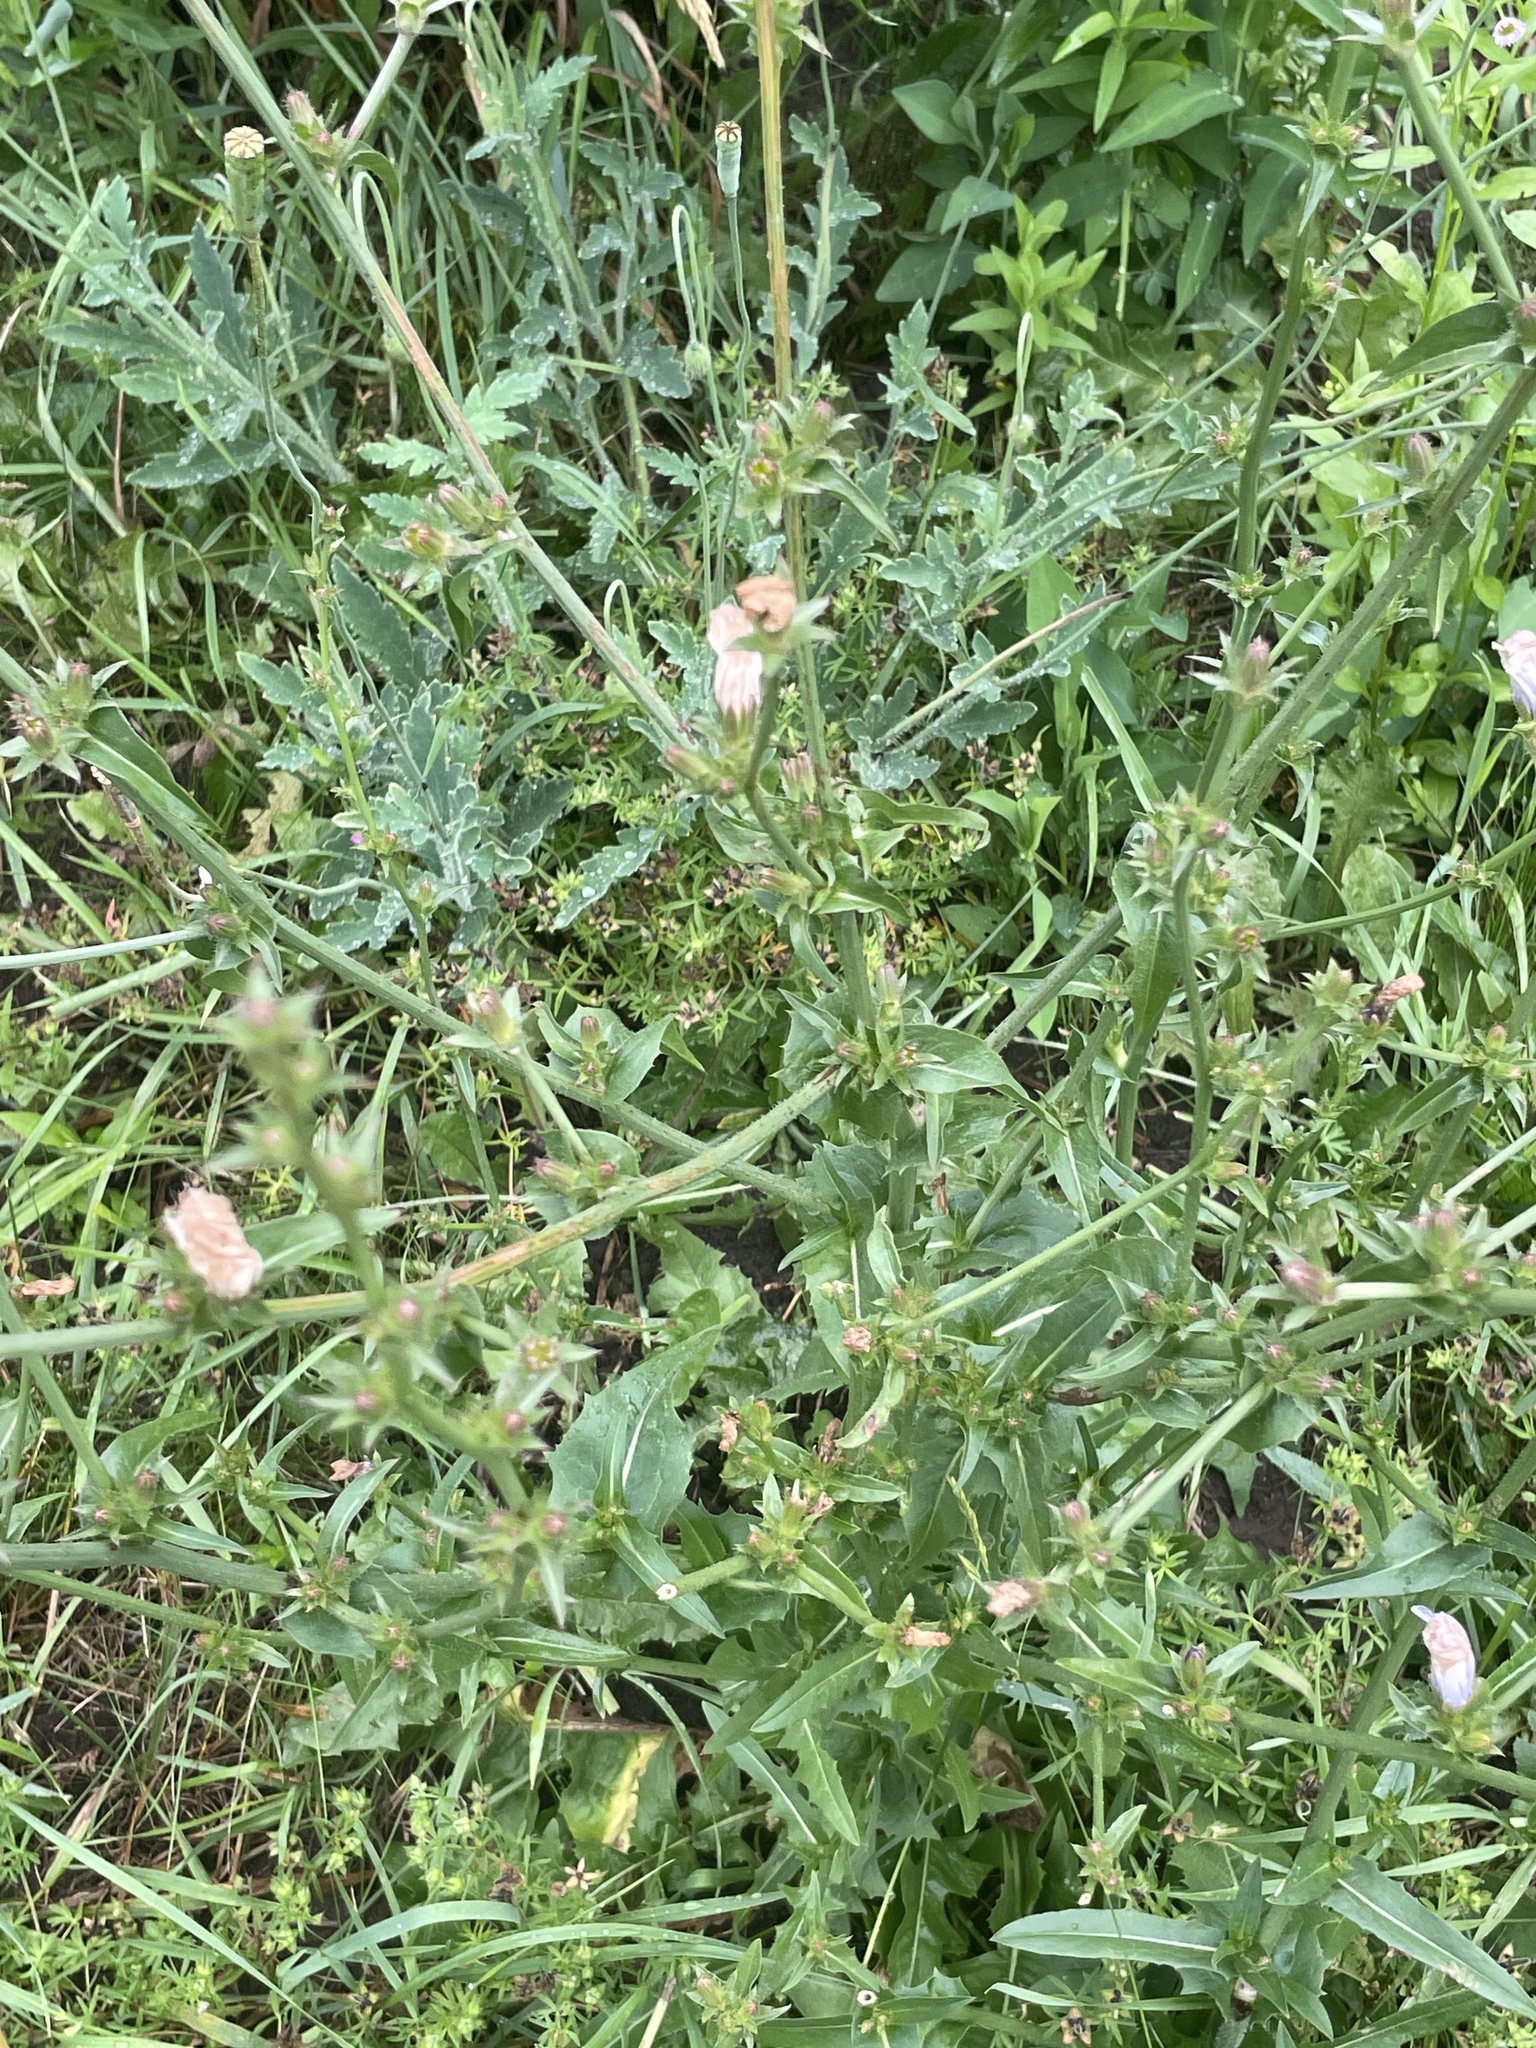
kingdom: Plantae
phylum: Tracheophyta
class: Magnoliopsida
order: Asterales
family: Asteraceae
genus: Cichorium
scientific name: Cichorium intybus
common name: Chicory
